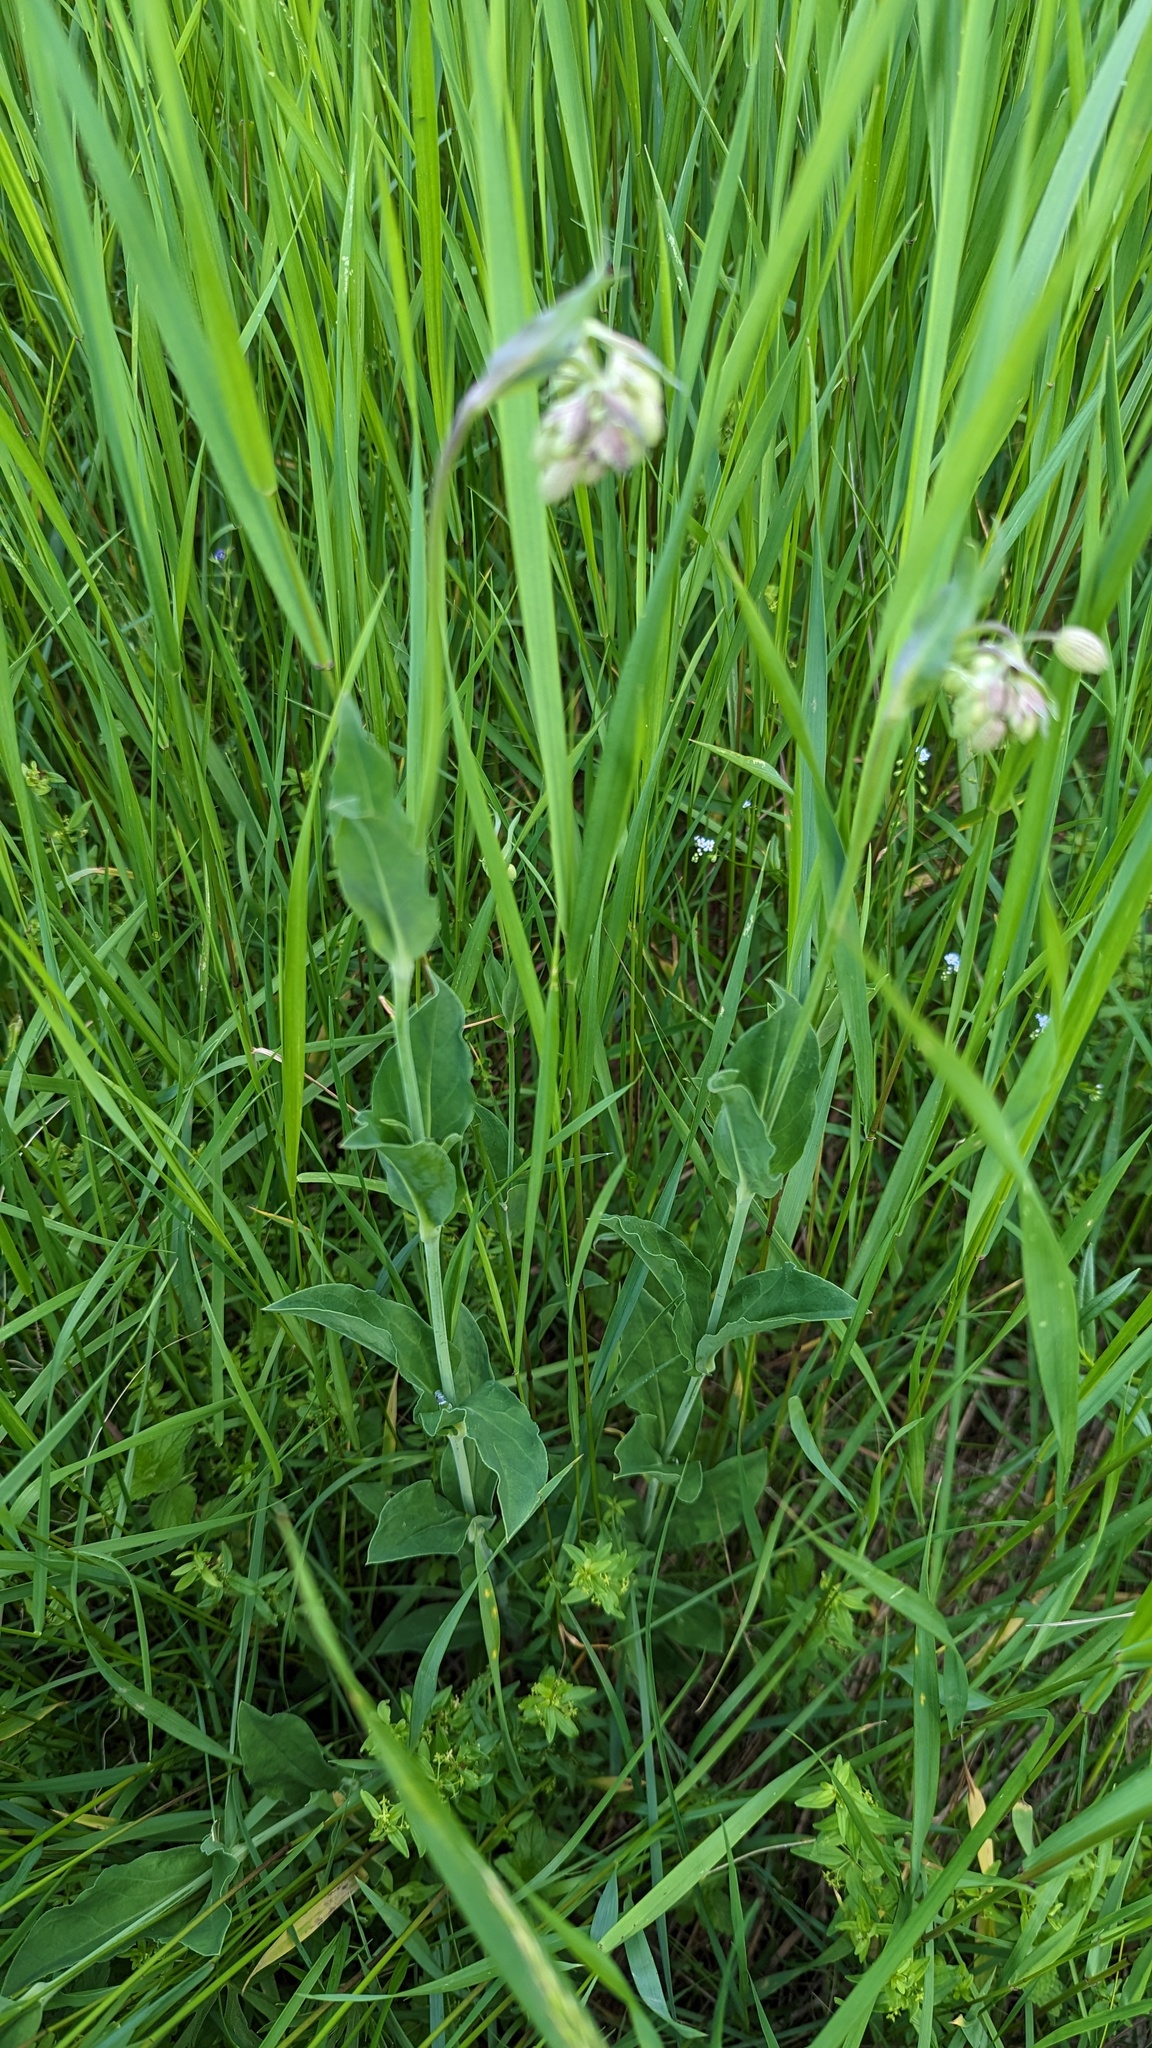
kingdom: Plantae
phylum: Tracheophyta
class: Magnoliopsida
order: Caryophyllales
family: Caryophyllaceae
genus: Silene
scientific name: Silene vulgaris
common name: Bladder campion
